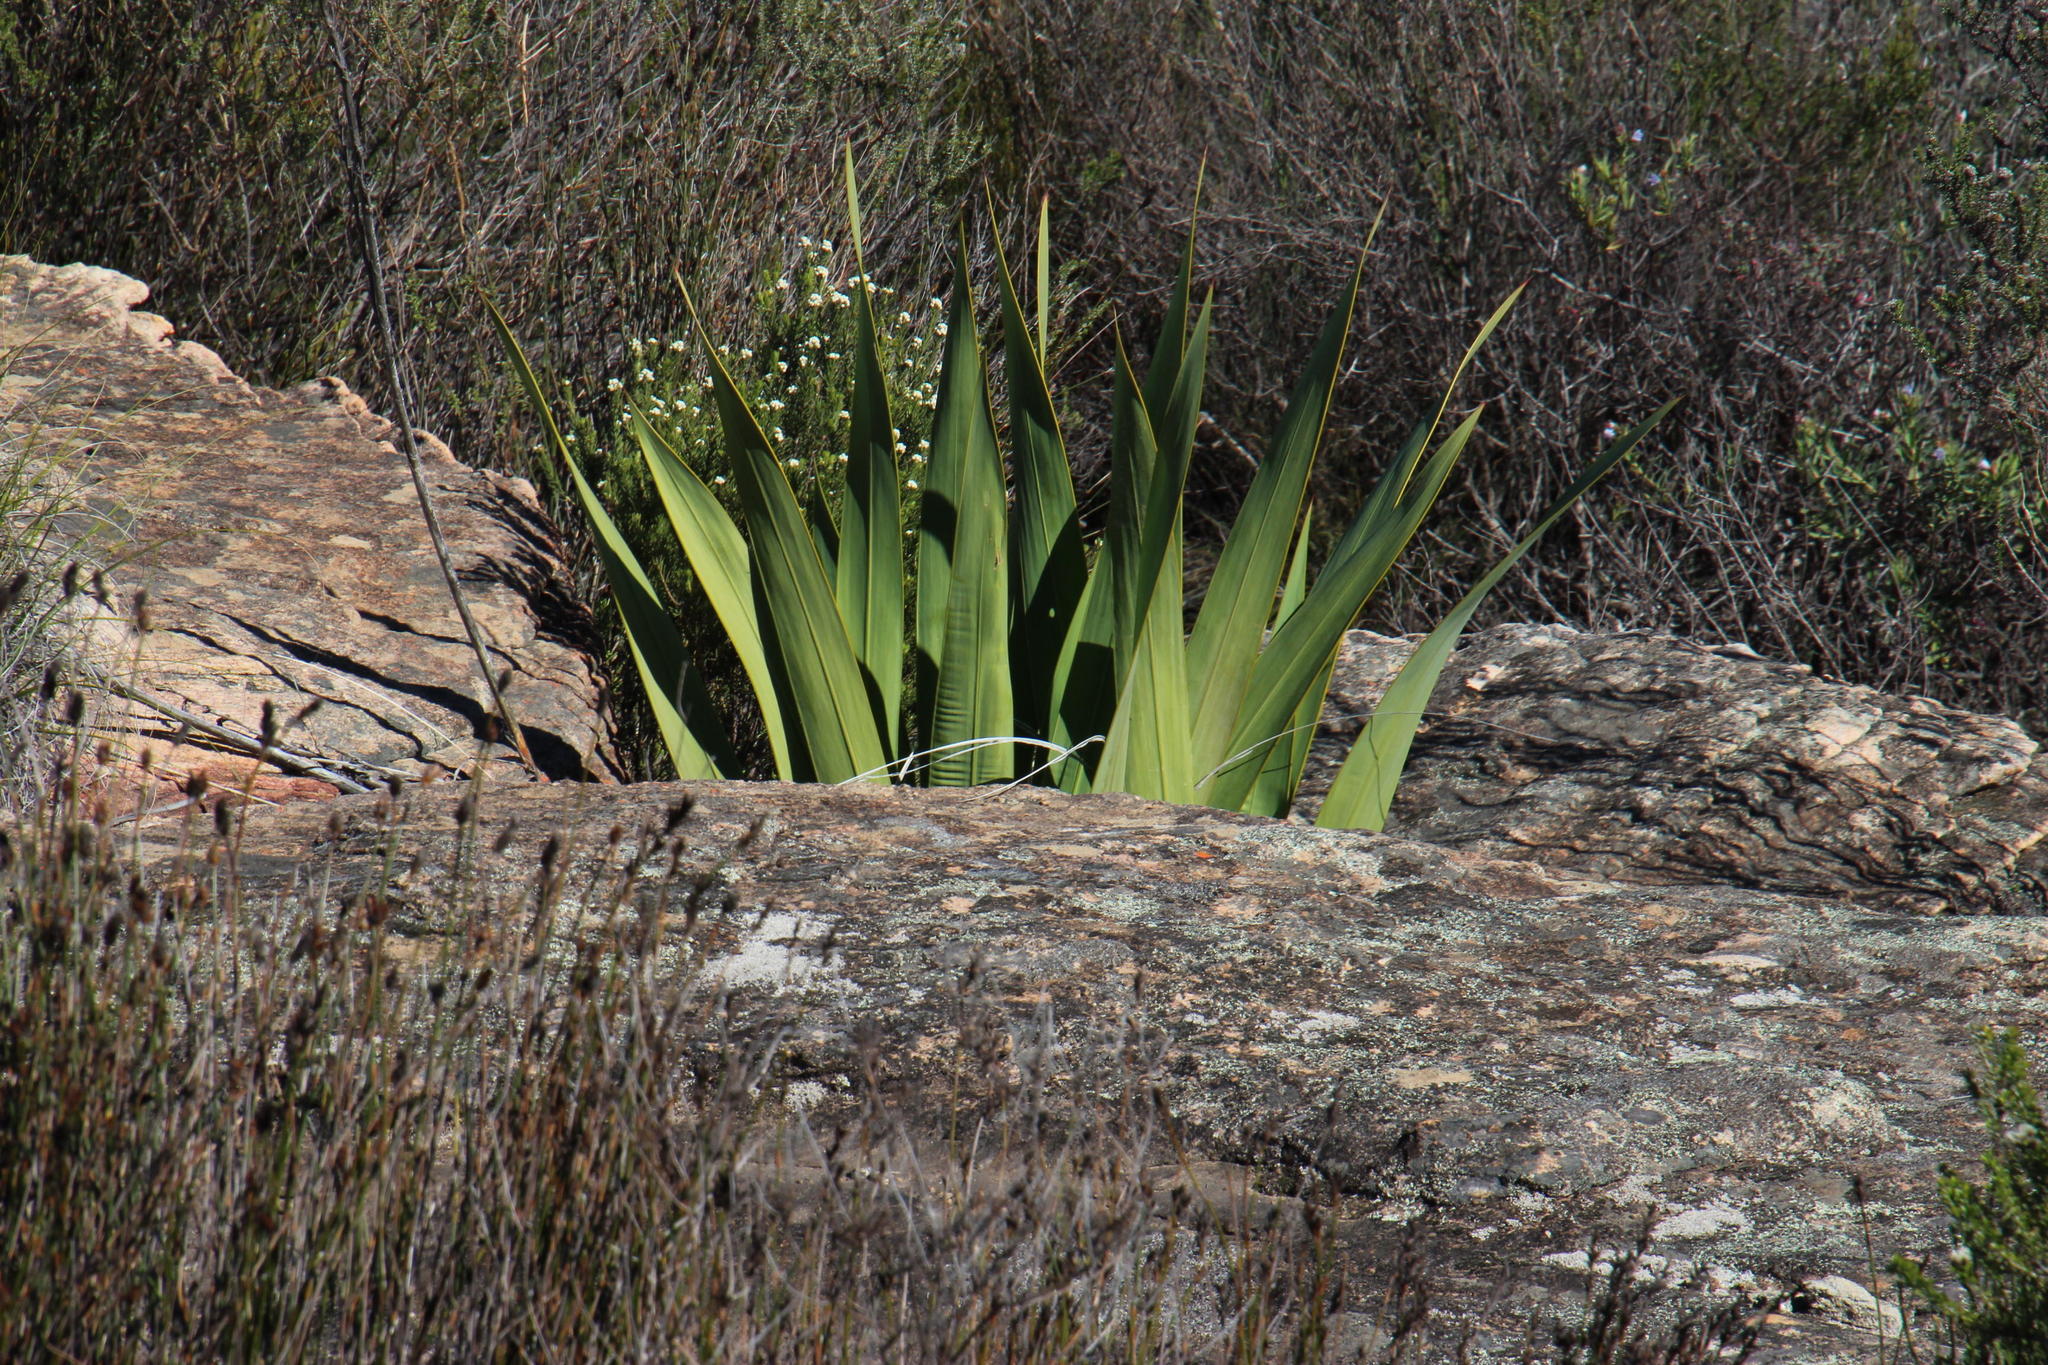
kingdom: Plantae
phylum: Tracheophyta
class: Liliopsida
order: Asparagales
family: Iridaceae
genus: Watsonia
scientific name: Watsonia vanderspuyae
